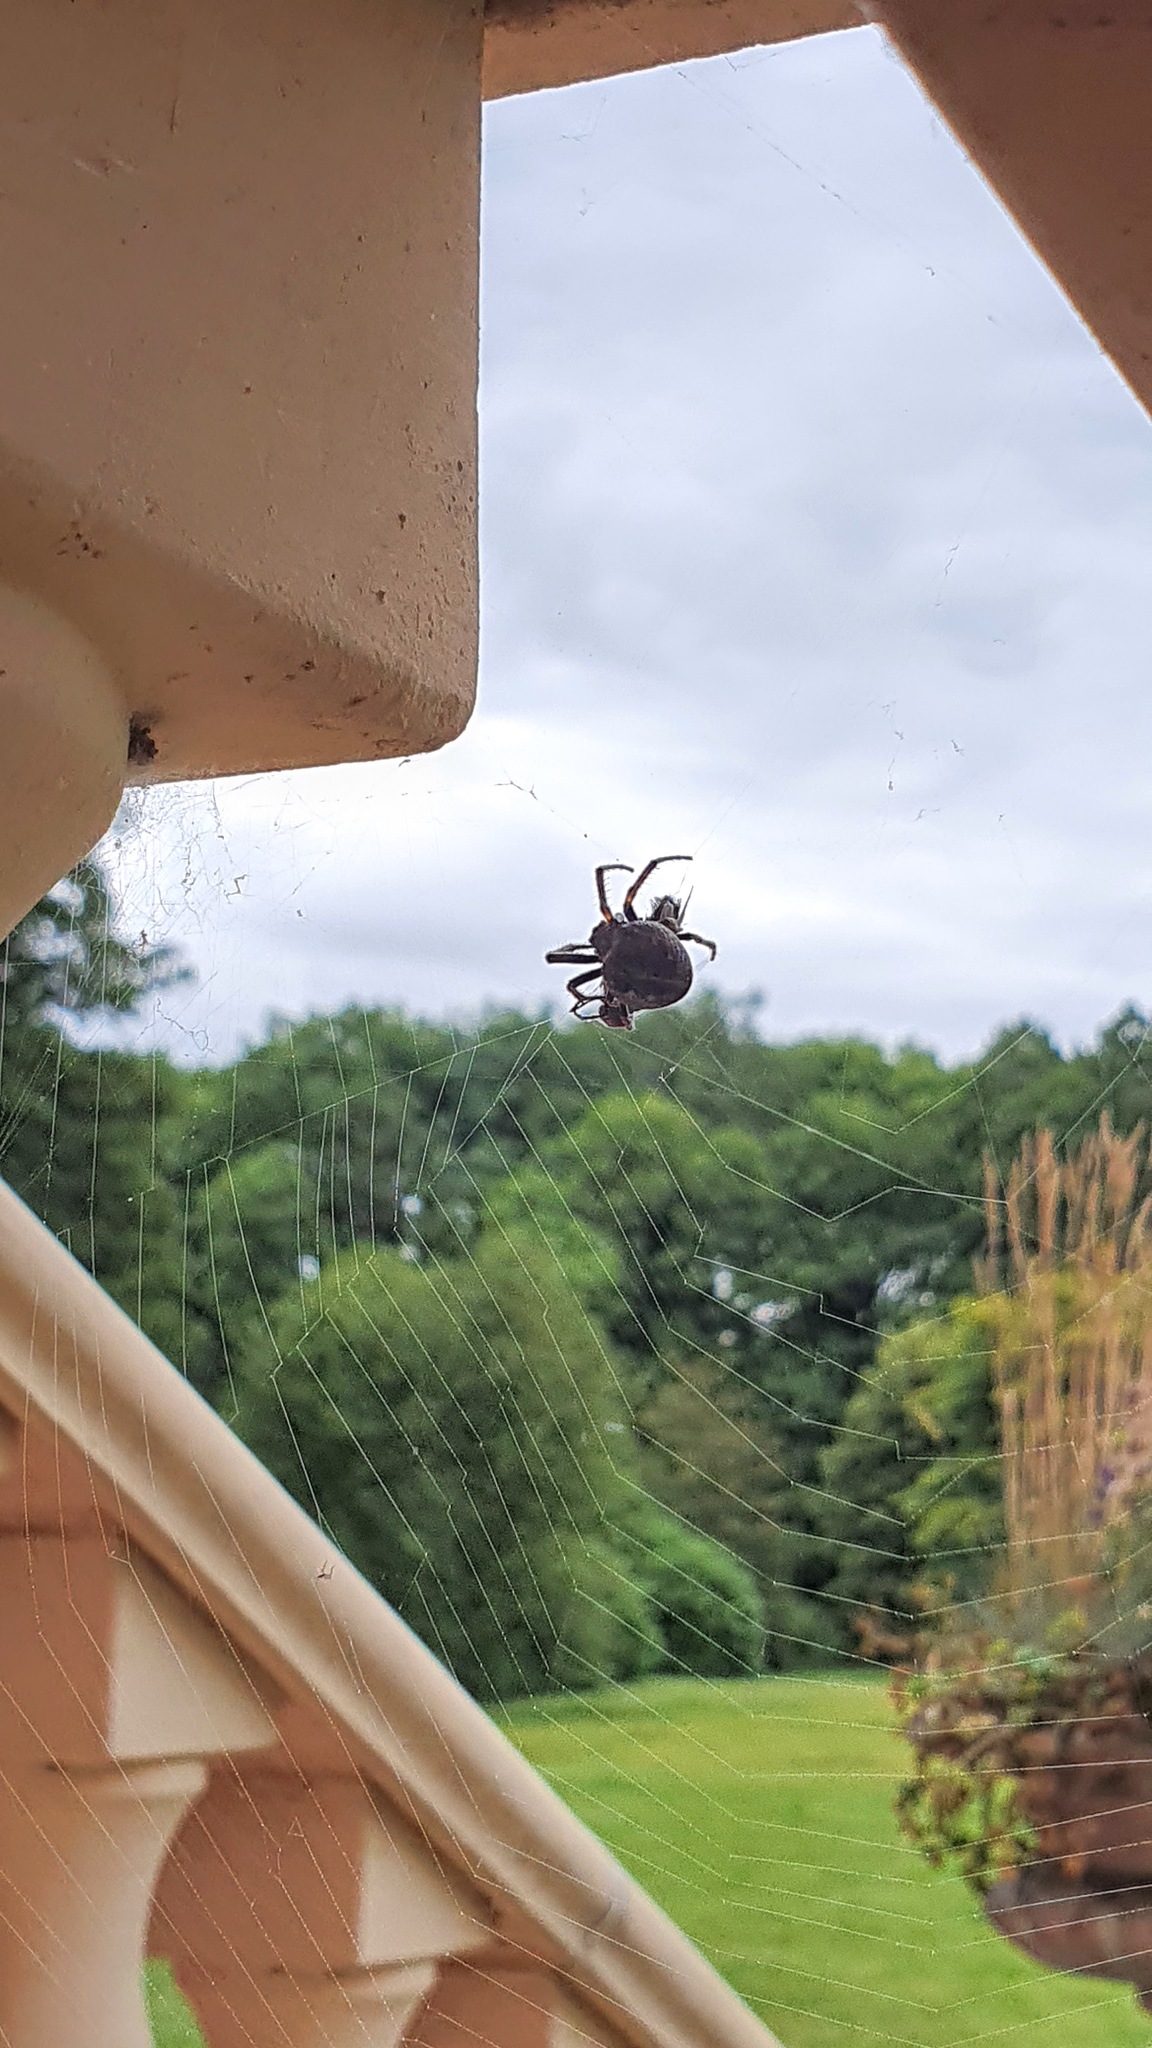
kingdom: Animalia
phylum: Arthropoda
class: Arachnida
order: Araneae
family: Araneidae
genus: Nuctenea
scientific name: Nuctenea umbratica
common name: Toad spider
